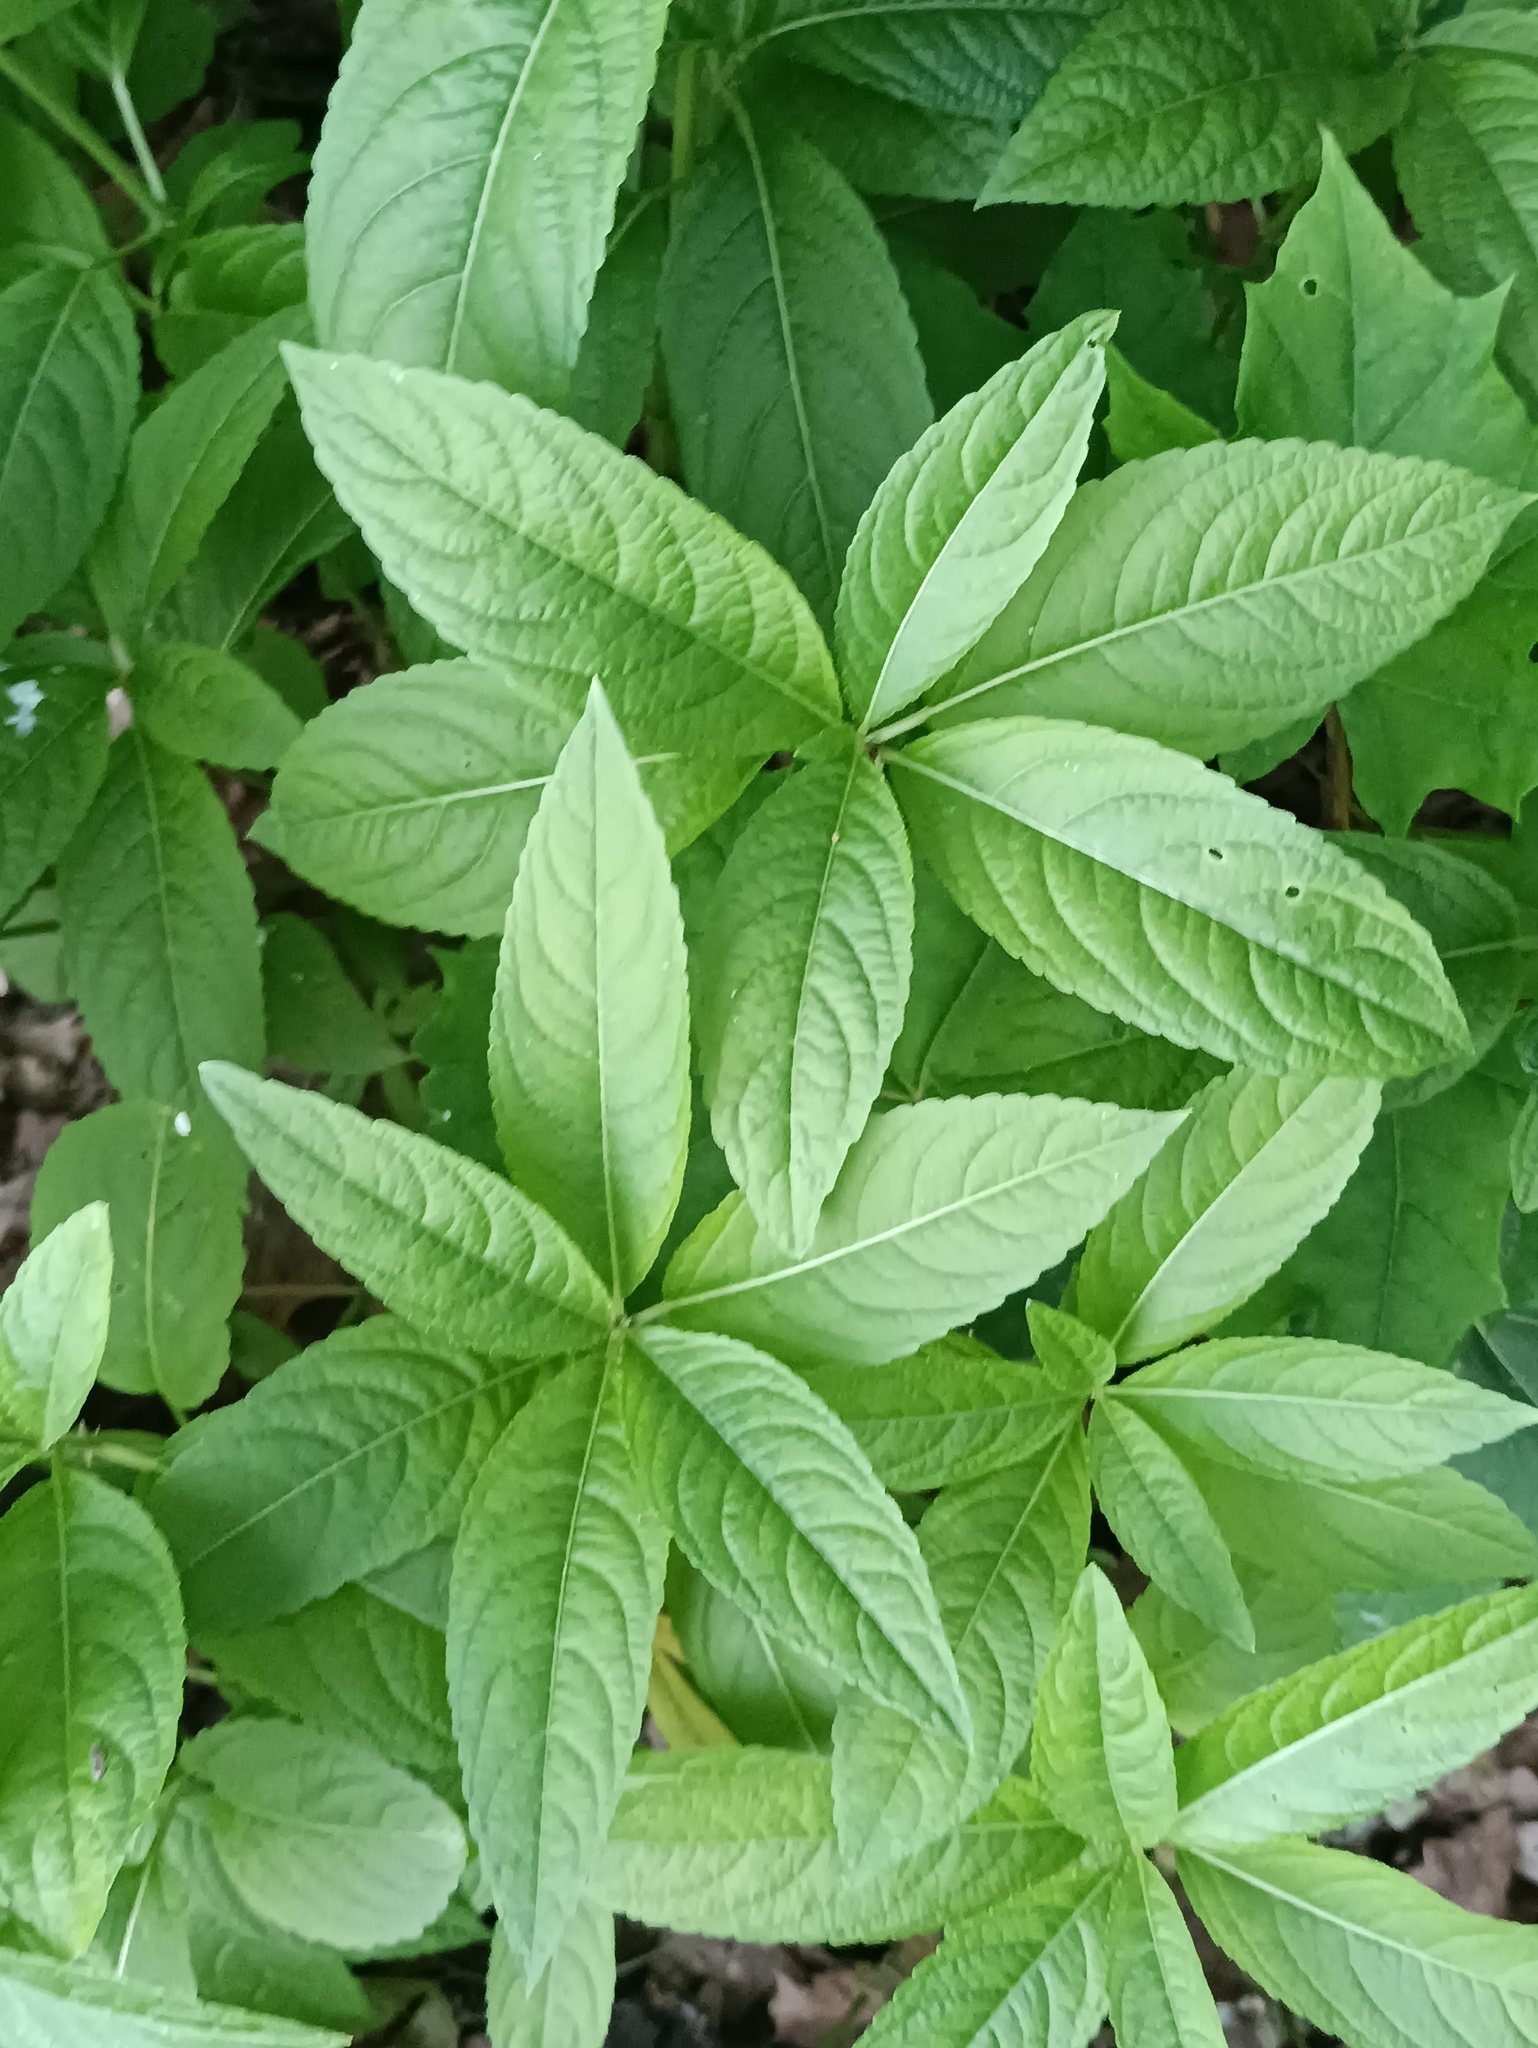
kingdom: Plantae
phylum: Tracheophyta
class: Magnoliopsida
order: Malpighiales
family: Euphorbiaceae
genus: Mercurialis
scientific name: Mercurialis perennis
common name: Dog mercury
